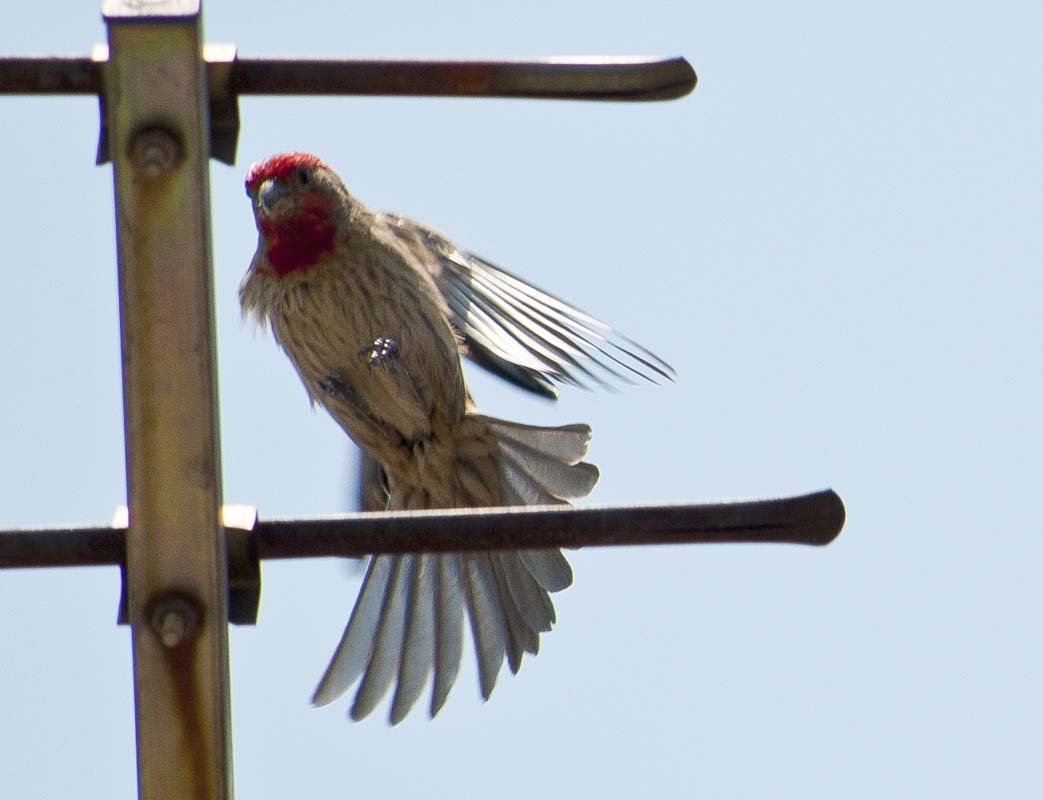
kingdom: Animalia
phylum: Chordata
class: Aves
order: Passeriformes
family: Fringillidae
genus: Haemorhous
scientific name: Haemorhous mexicanus
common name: House finch
